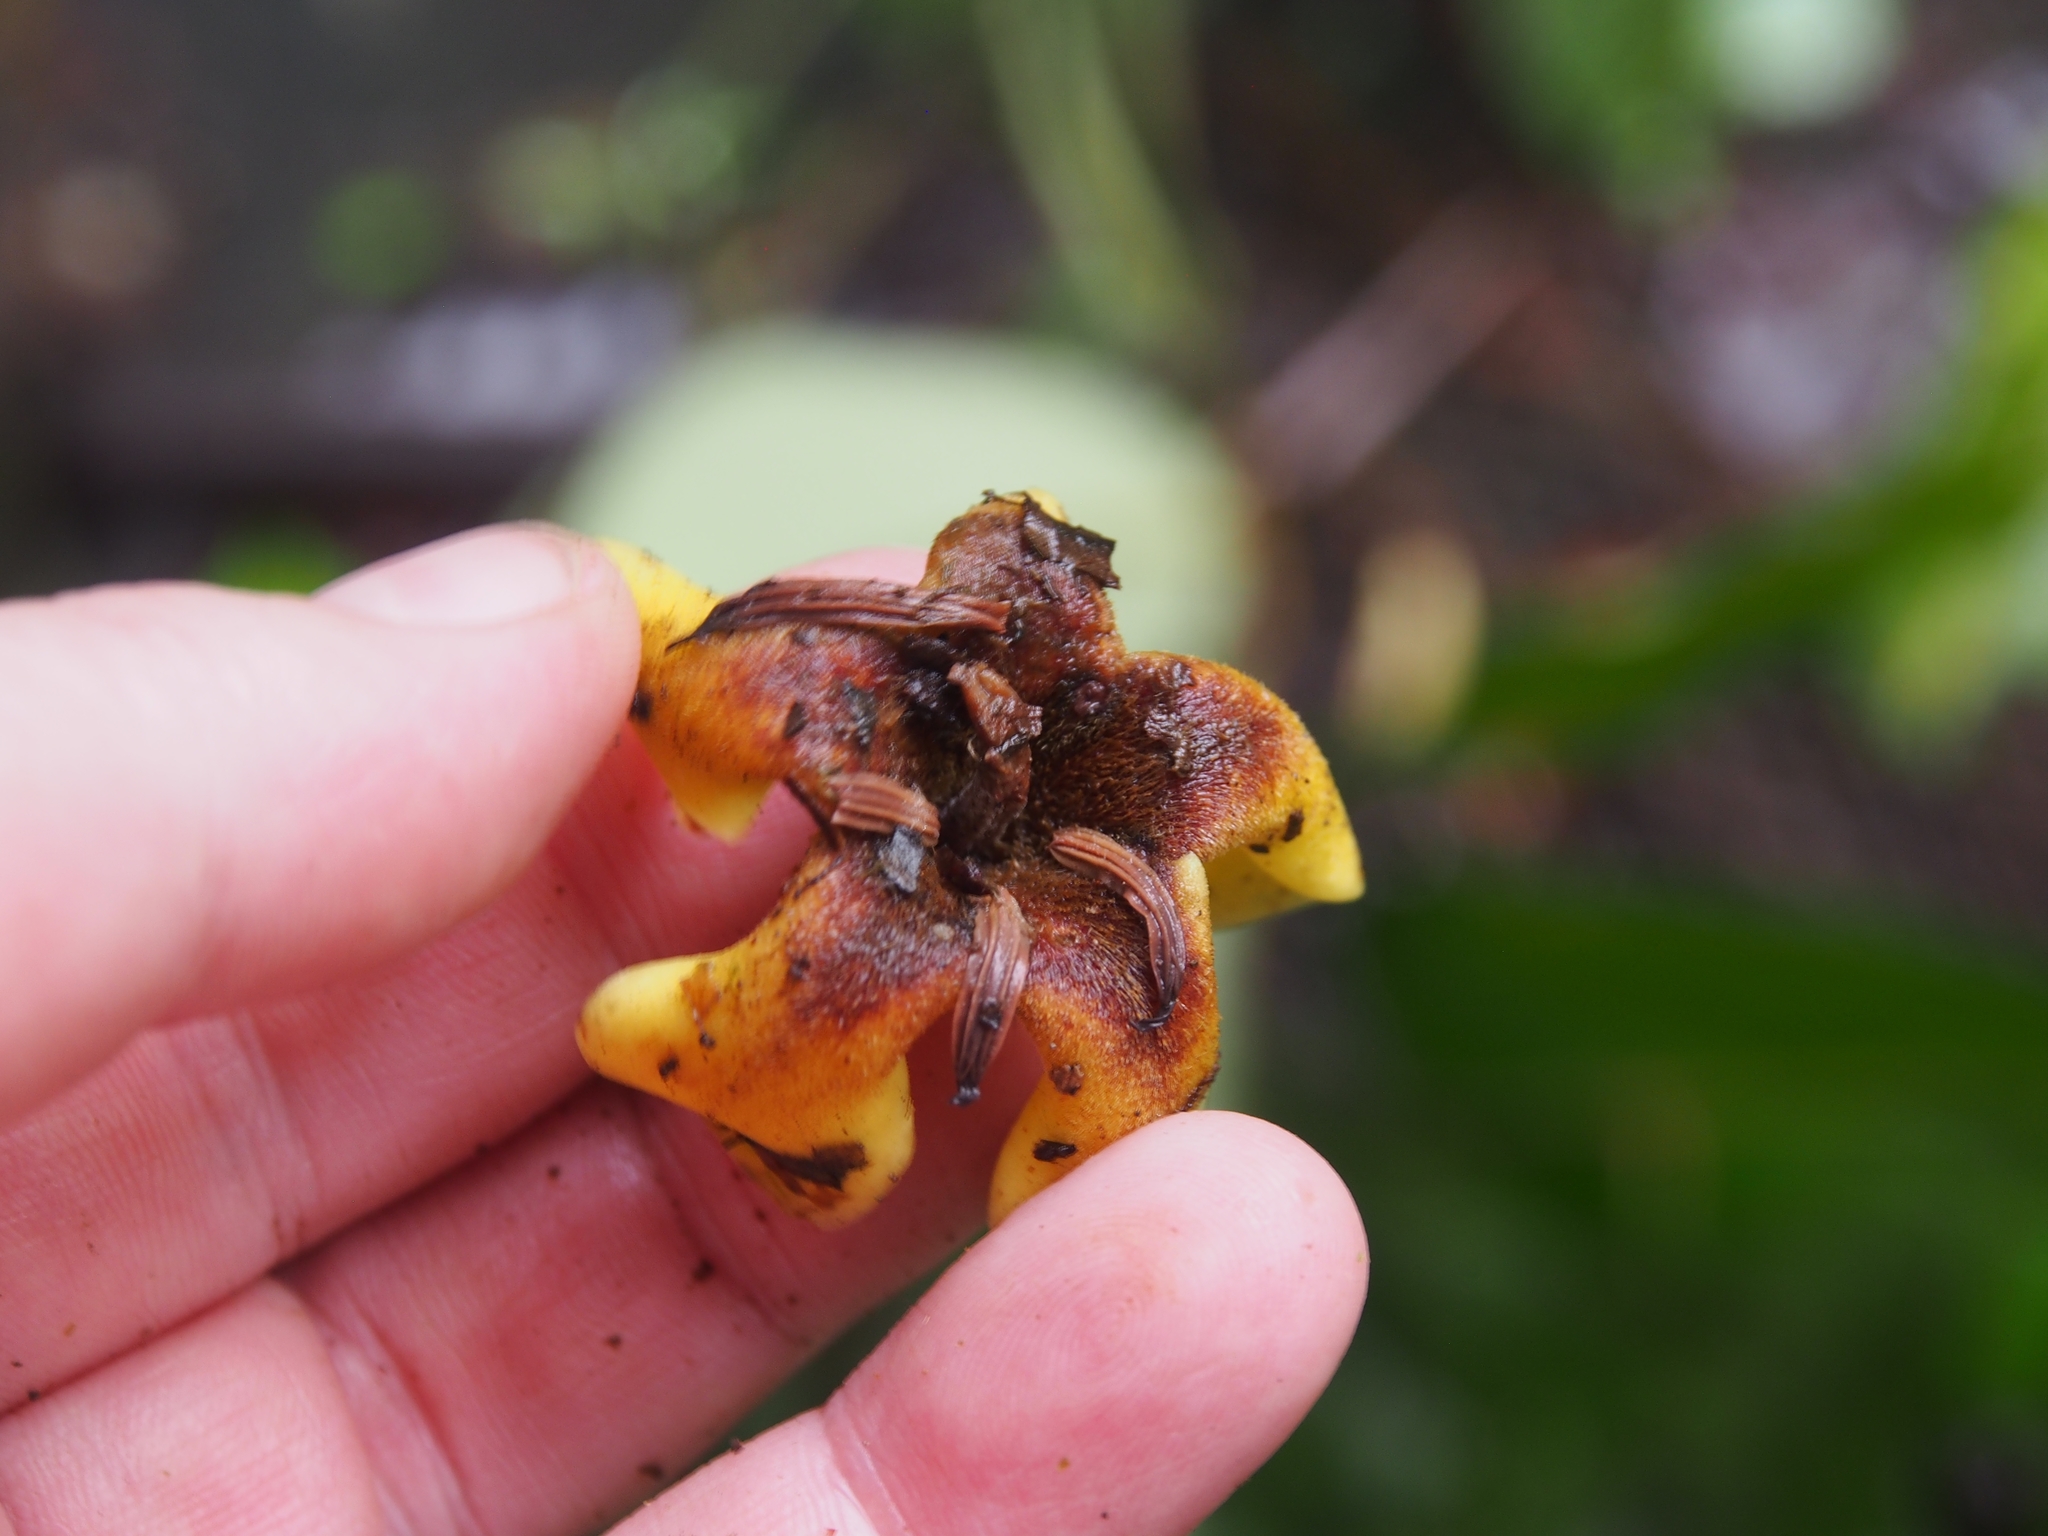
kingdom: Plantae
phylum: Tracheophyta
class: Magnoliopsida
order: Gentianales
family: Rubiaceae
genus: Genipa
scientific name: Genipa americana
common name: Genipap
